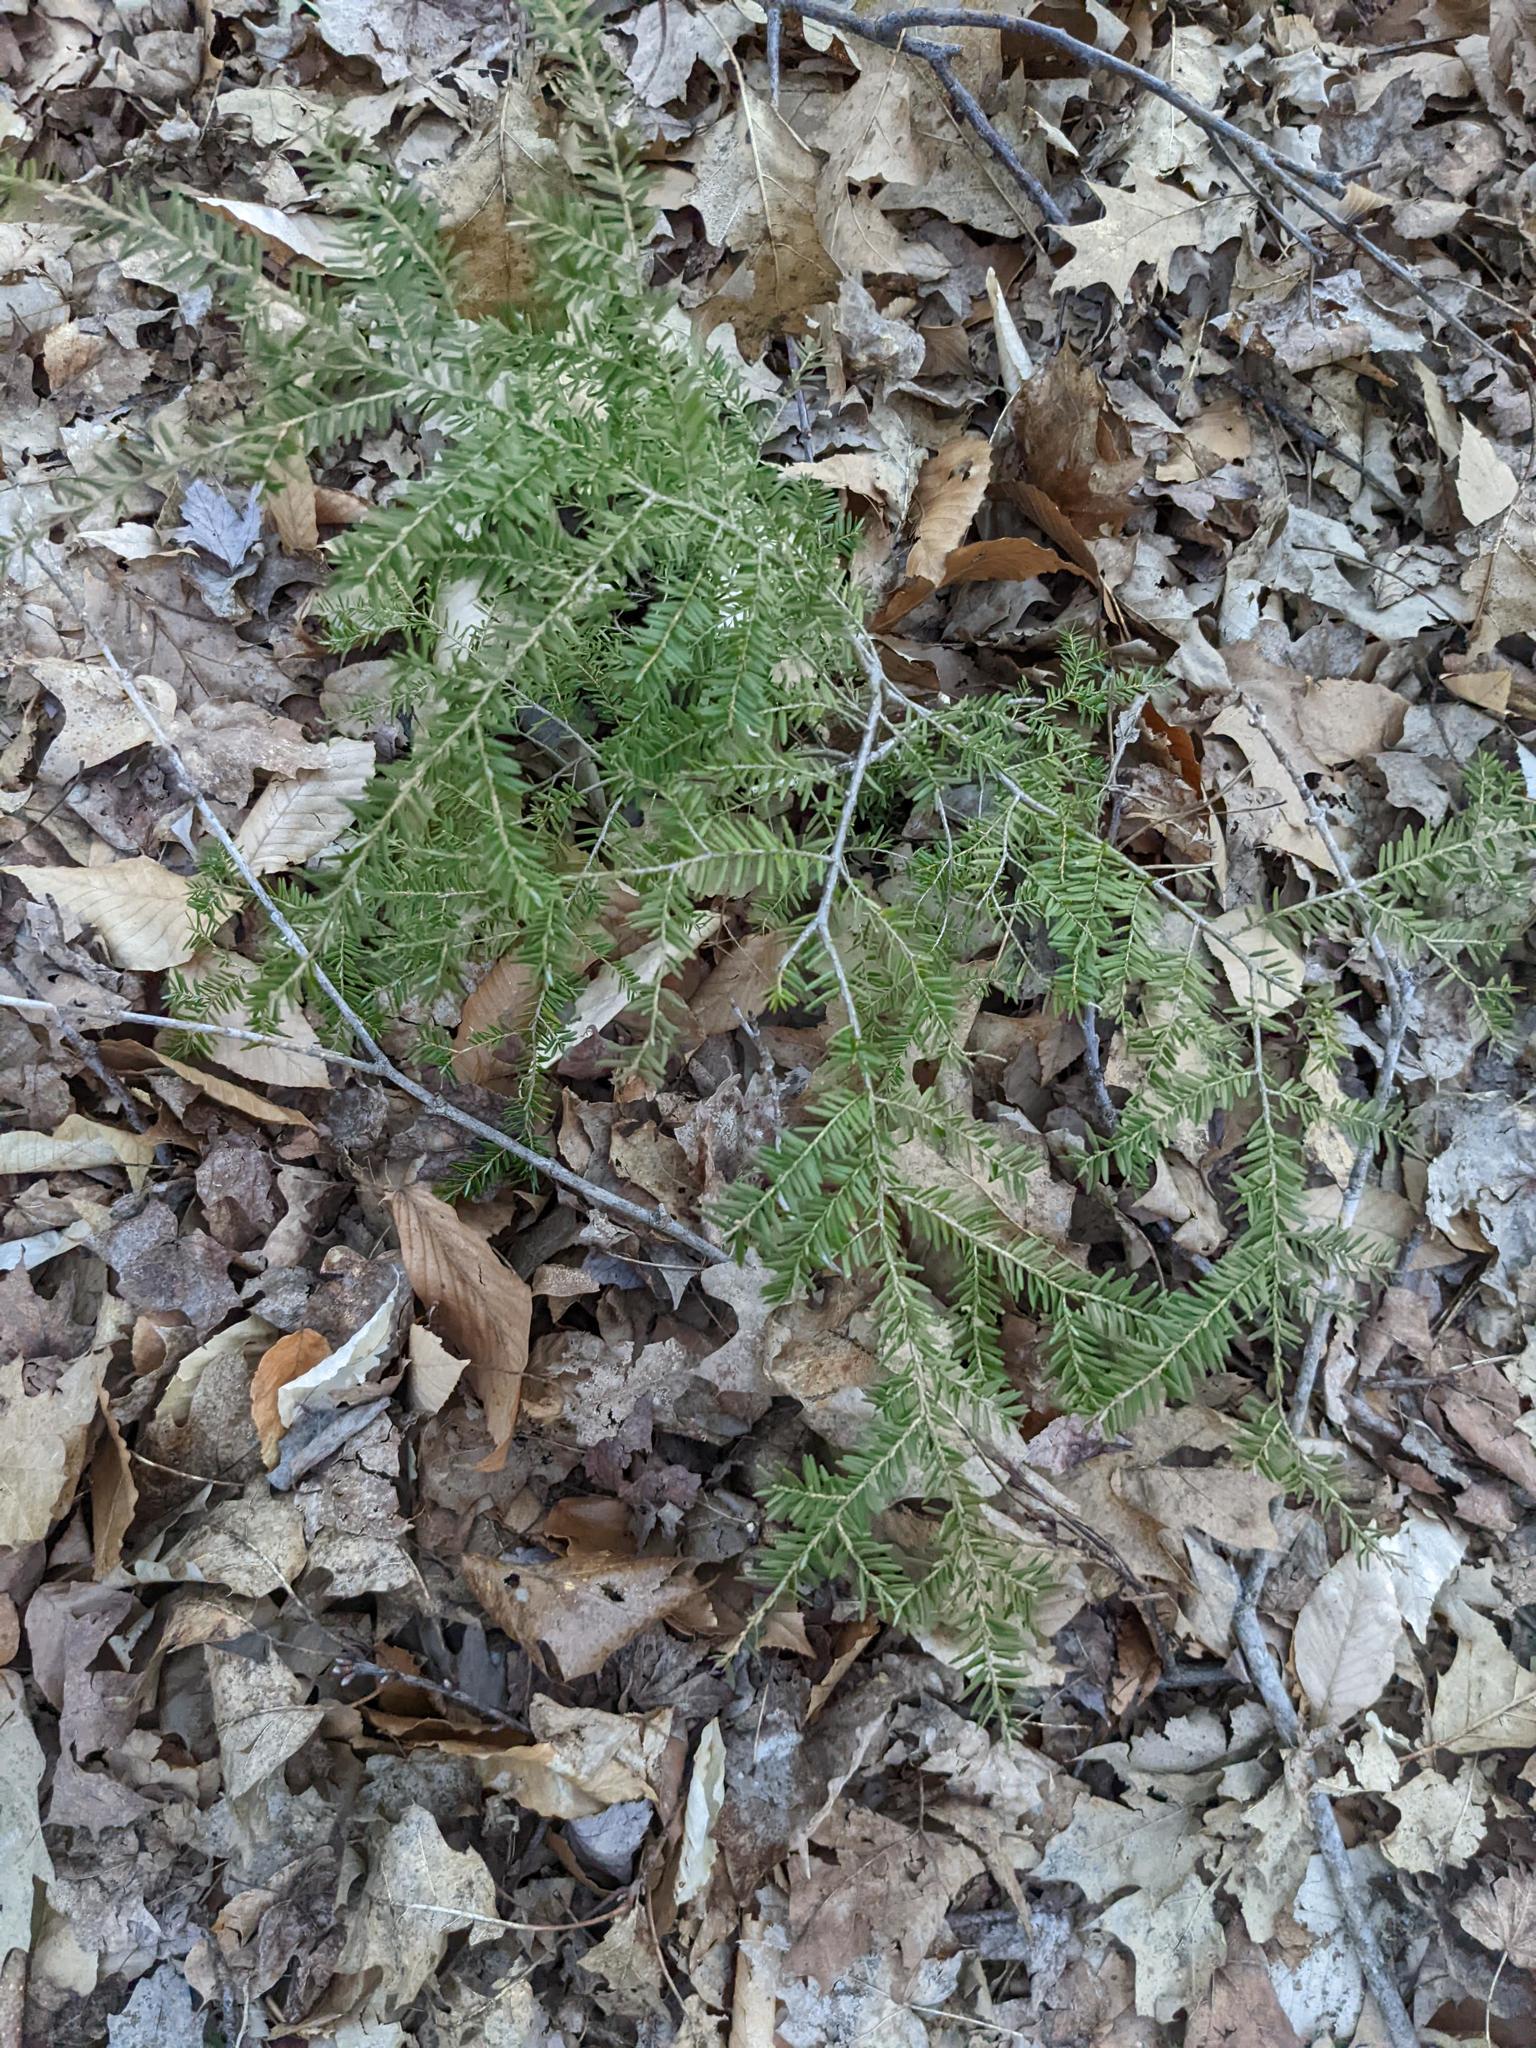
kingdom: Plantae
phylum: Tracheophyta
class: Pinopsida
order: Pinales
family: Pinaceae
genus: Tsuga
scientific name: Tsuga canadensis
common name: Eastern hemlock
